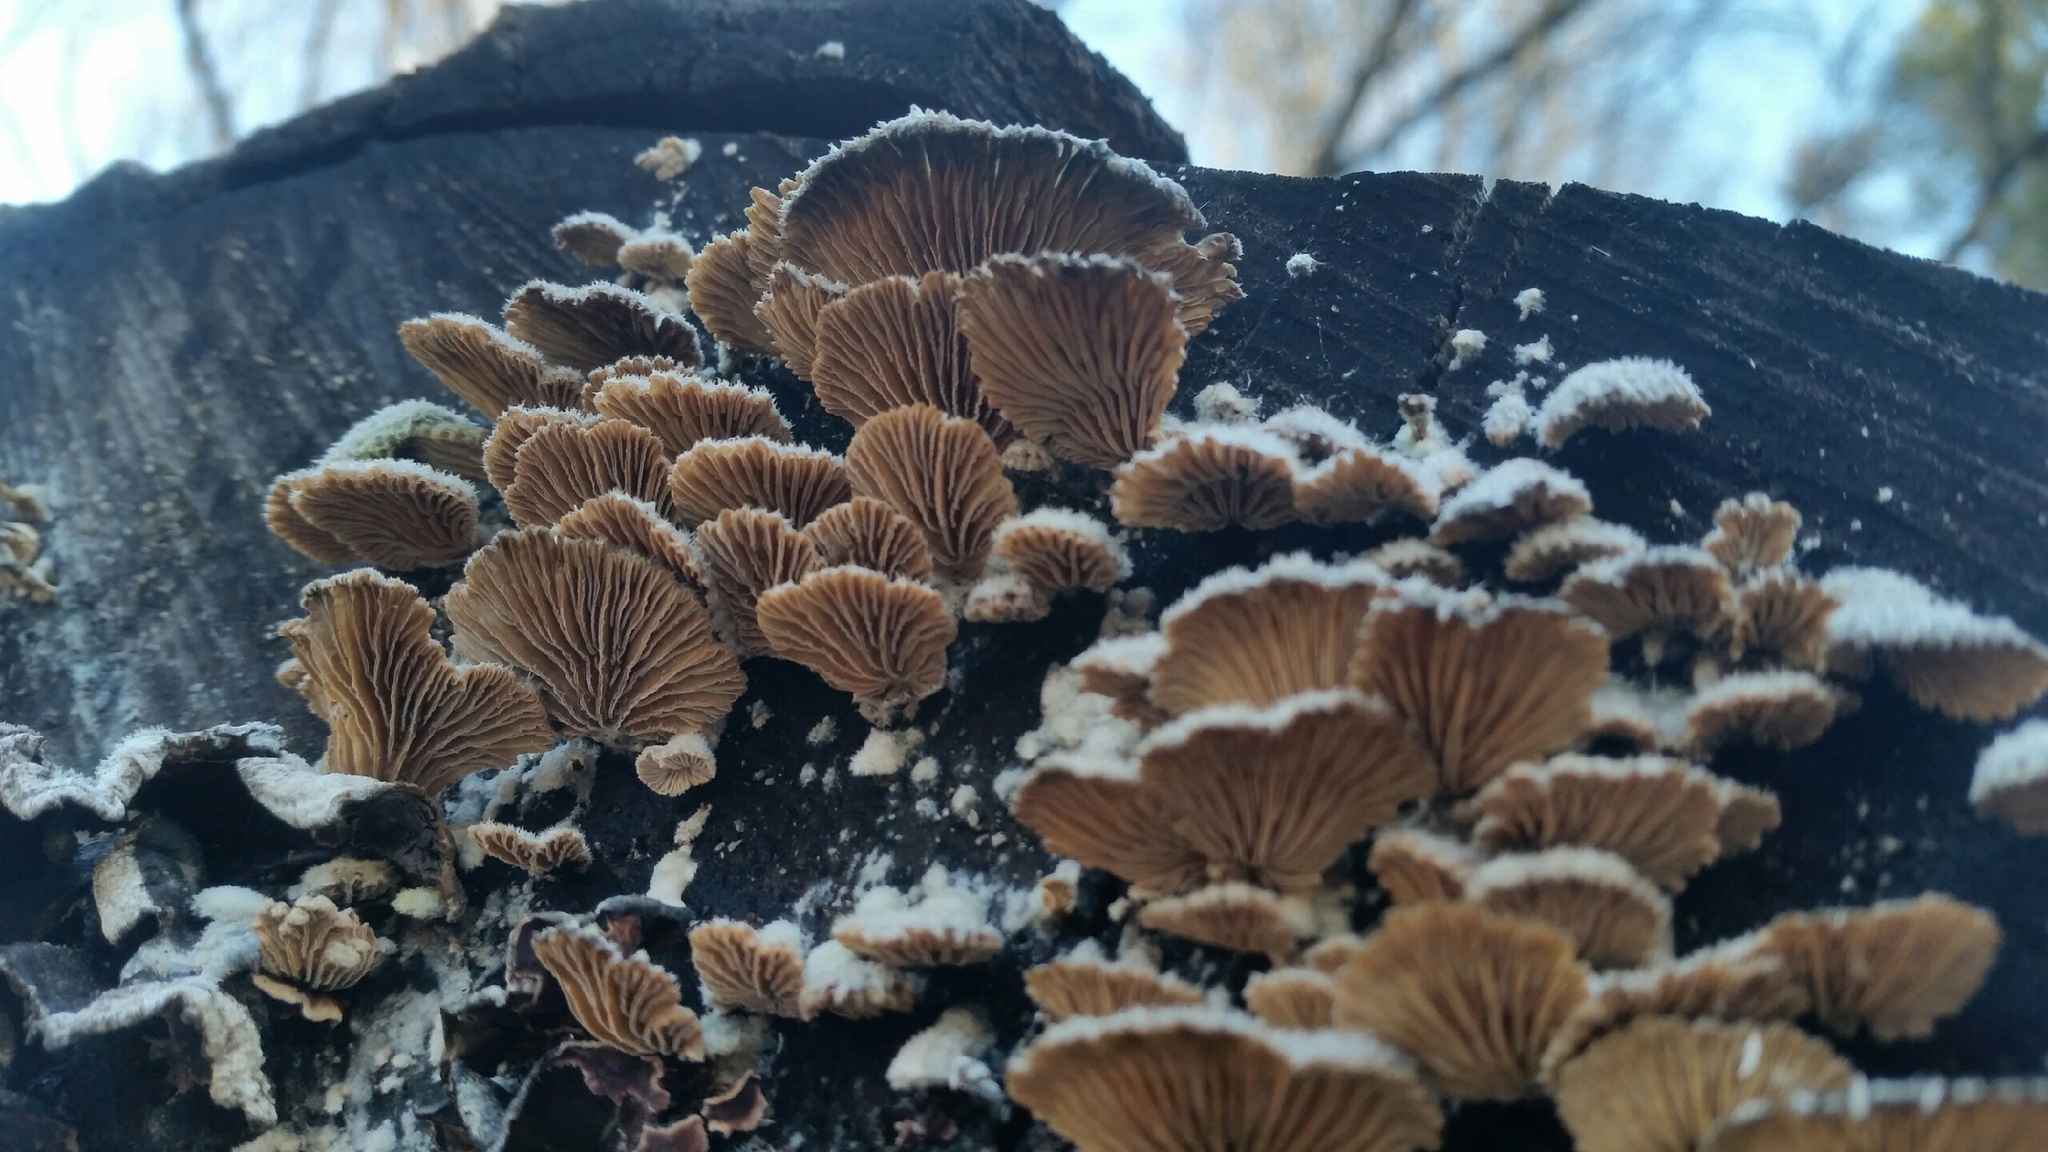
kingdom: Fungi
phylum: Basidiomycota
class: Agaricomycetes
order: Agaricales
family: Schizophyllaceae
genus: Schizophyllum
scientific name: Schizophyllum commune
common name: Common porecrust
